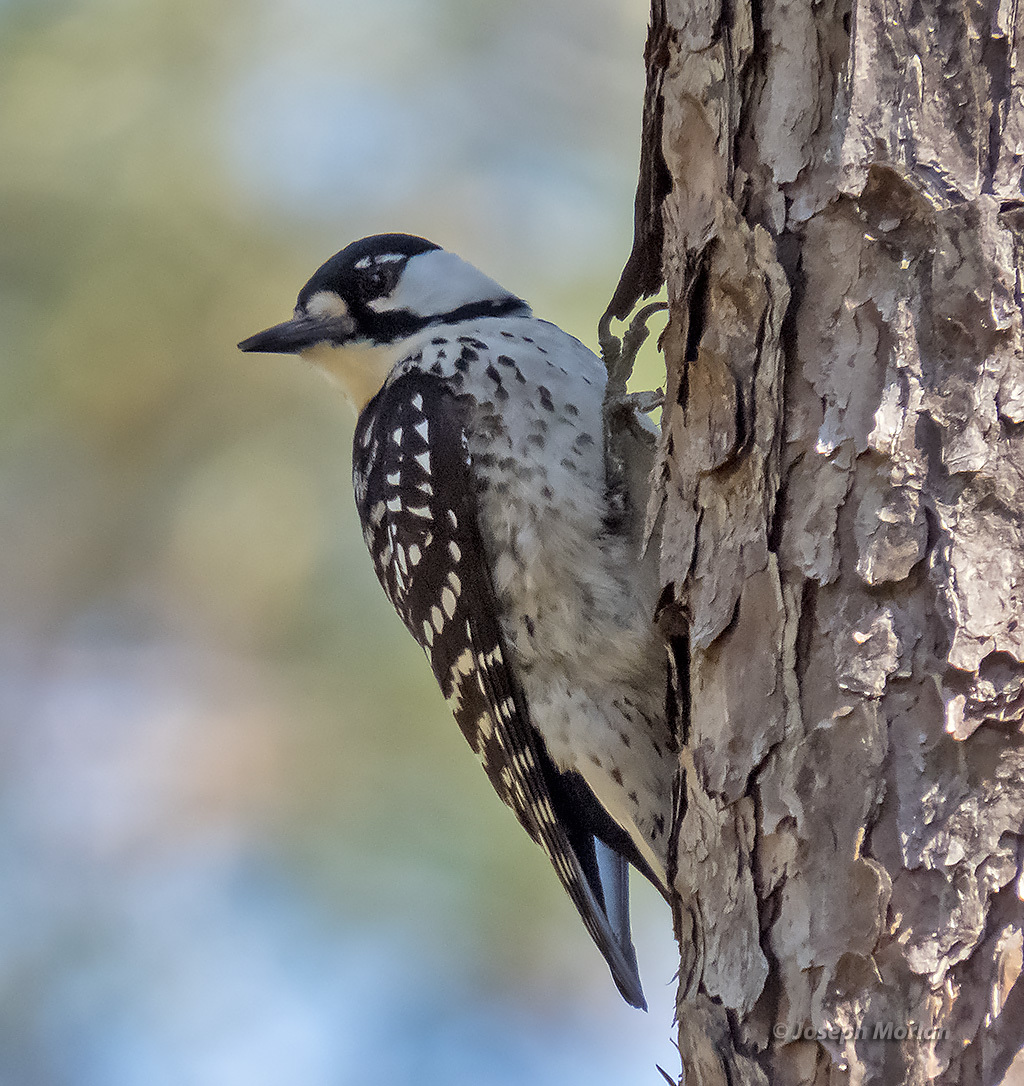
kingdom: Animalia
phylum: Chordata
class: Aves
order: Piciformes
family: Picidae
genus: Leuconotopicus
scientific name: Leuconotopicus borealis
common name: Red-cockaded woodpecker
